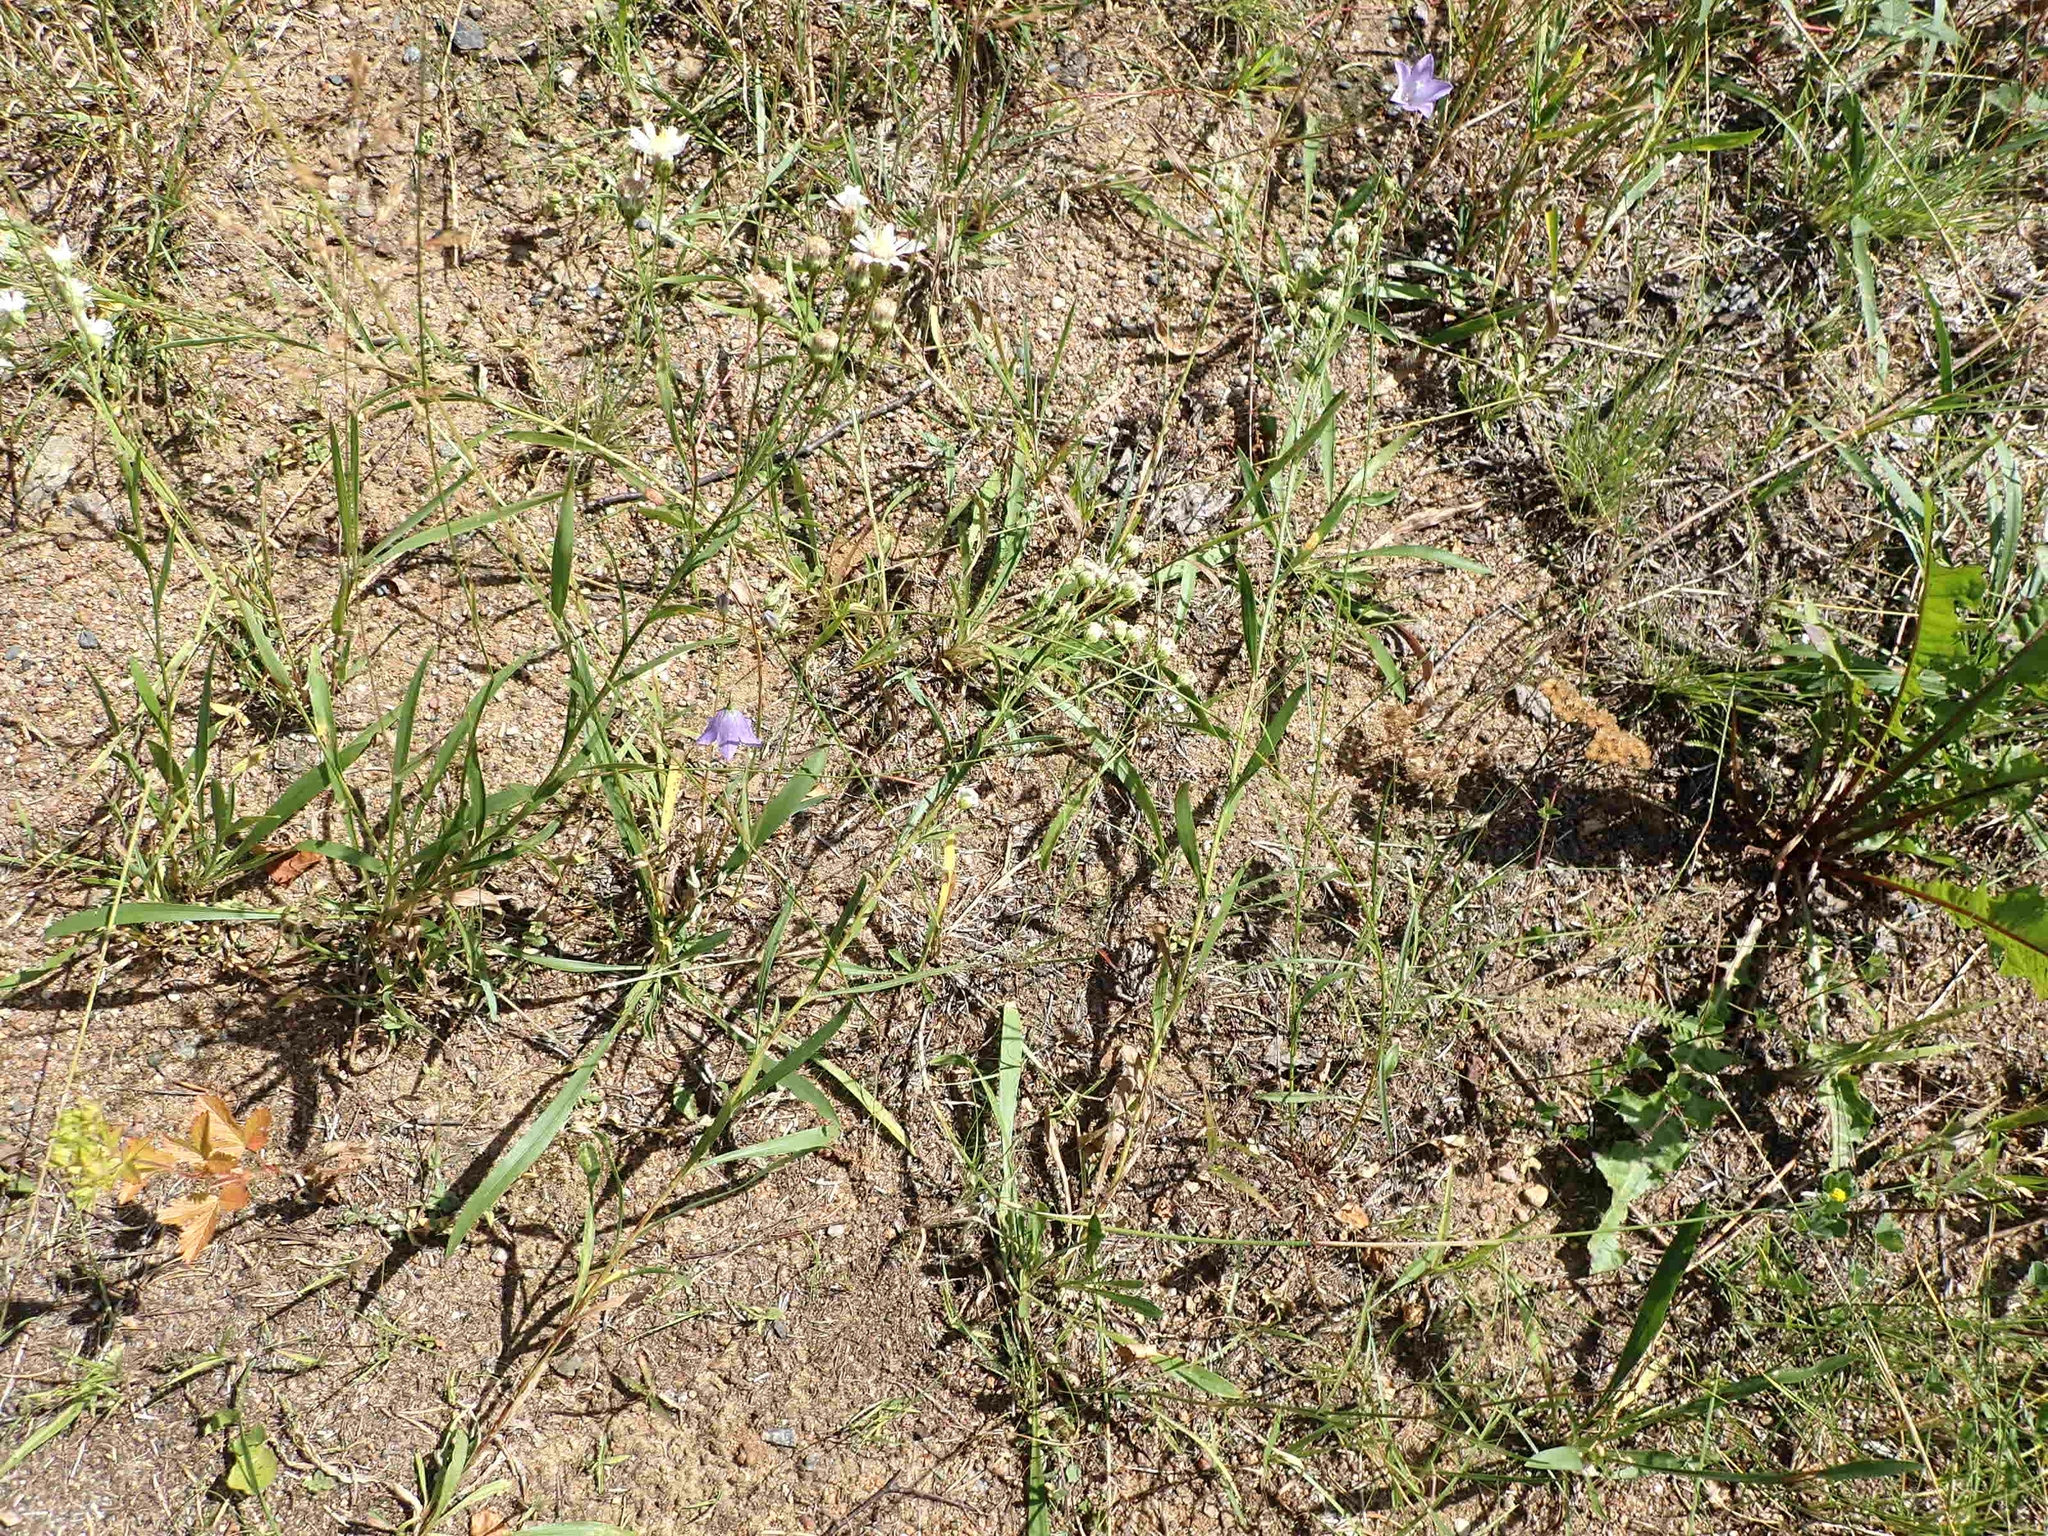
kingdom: Plantae
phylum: Tracheophyta
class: Magnoliopsida
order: Asterales
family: Campanulaceae
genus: Campanula
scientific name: Campanula petiolata
